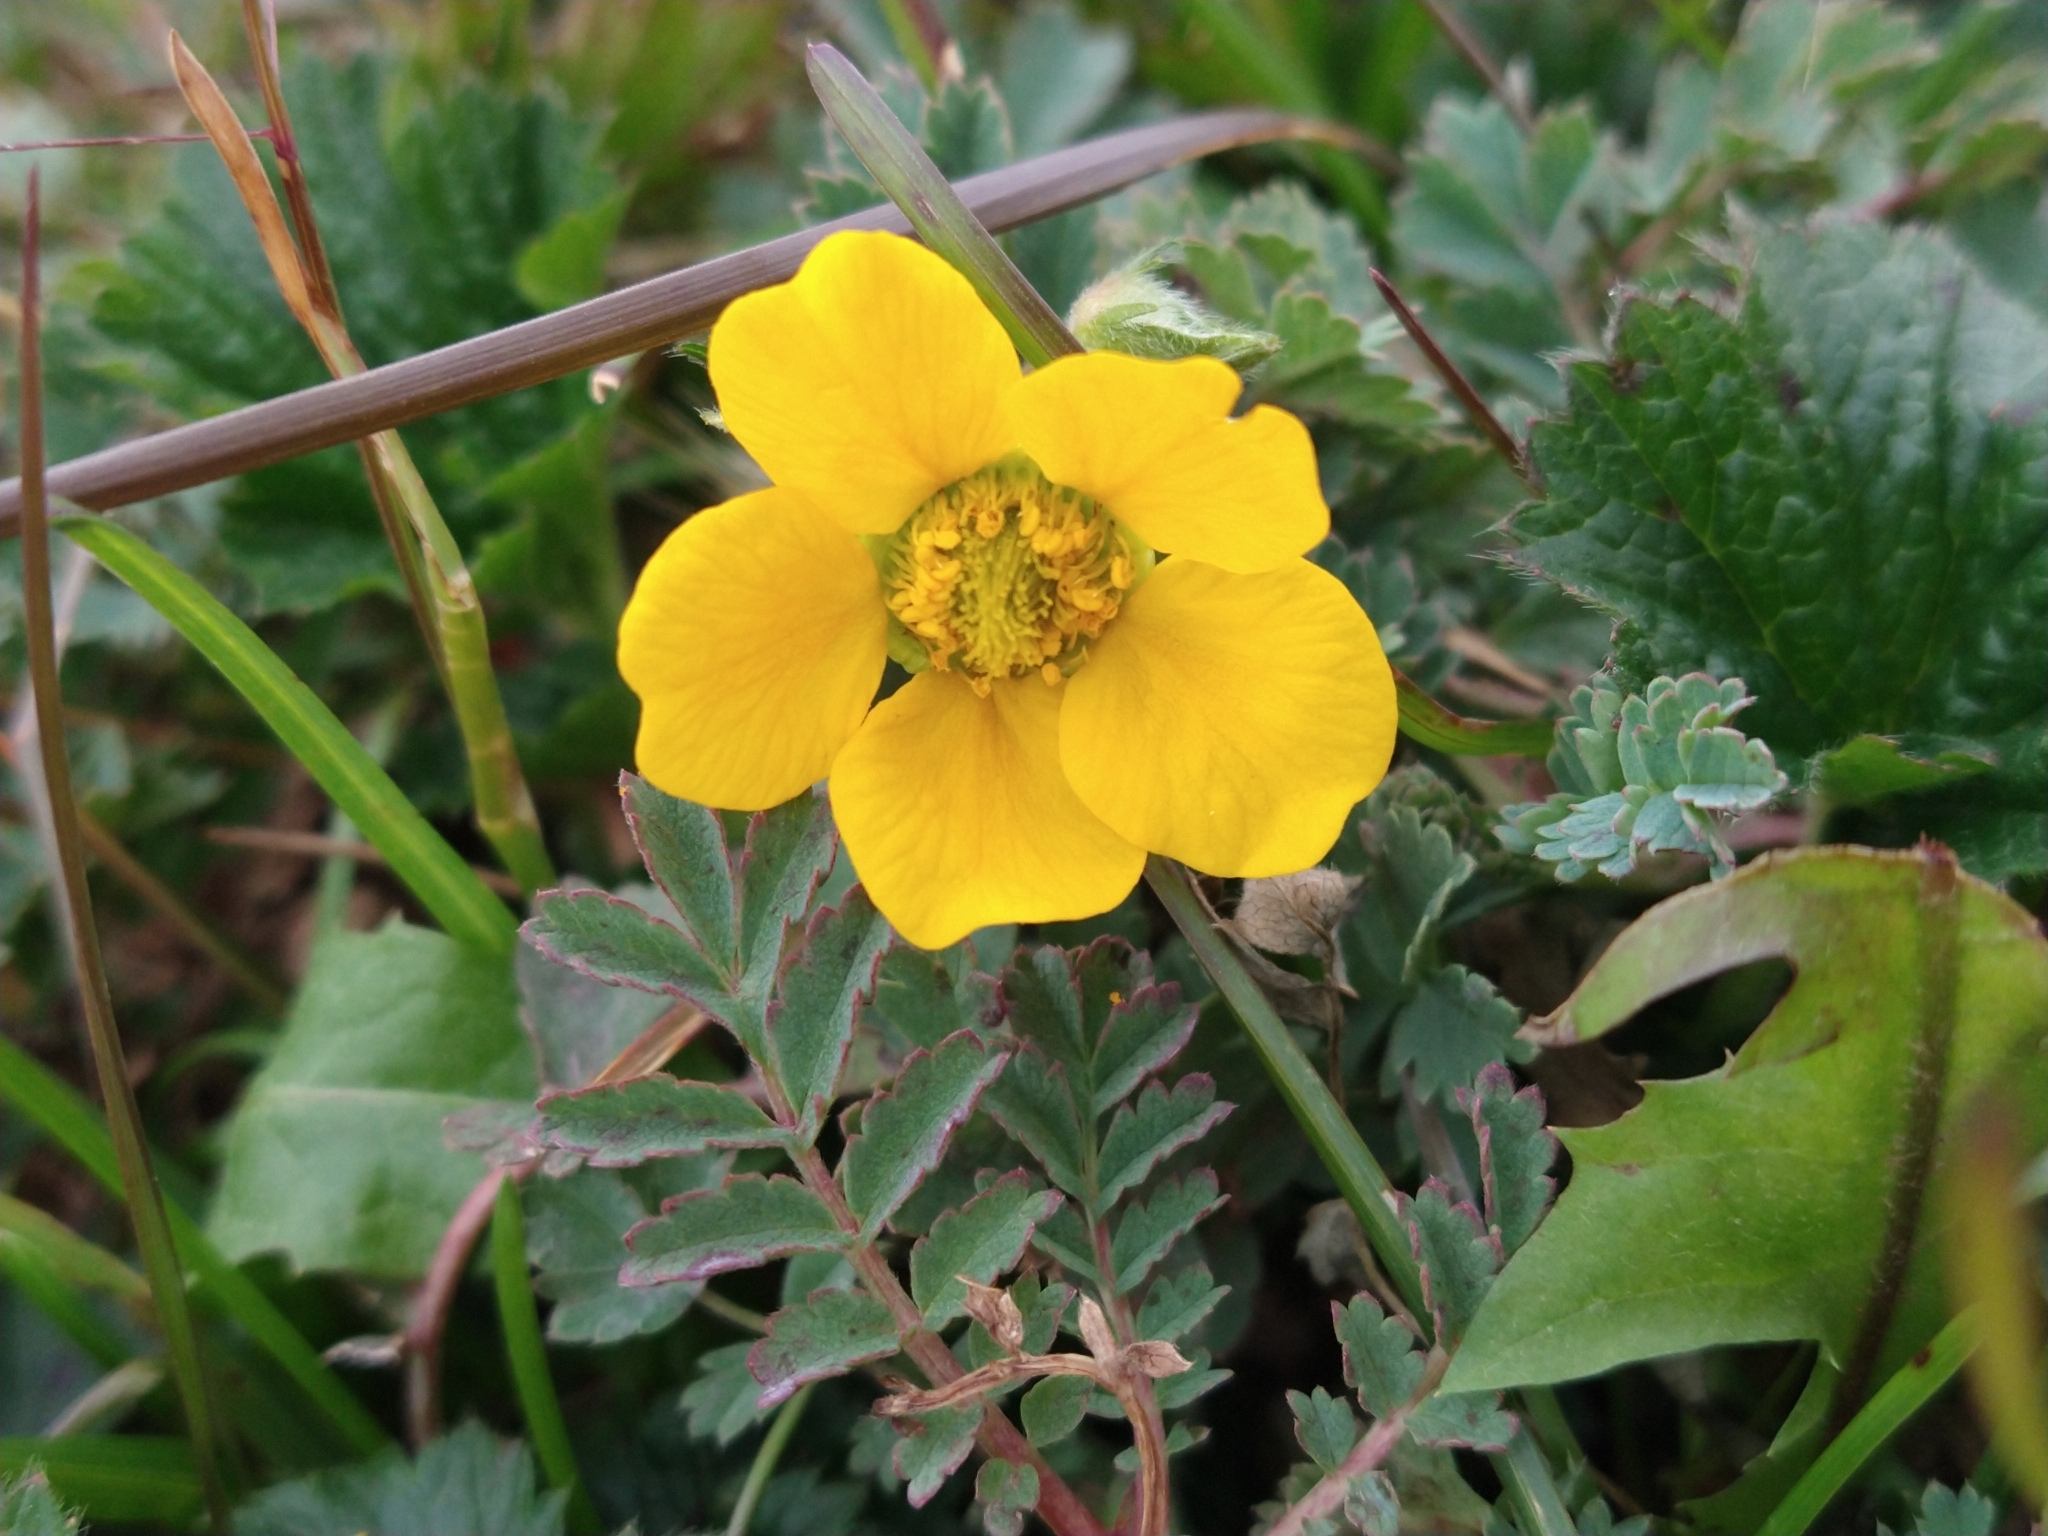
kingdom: Plantae
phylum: Tracheophyta
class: Magnoliopsida
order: Rosales
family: Rosaceae
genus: Geum
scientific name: Geum magellanicum
